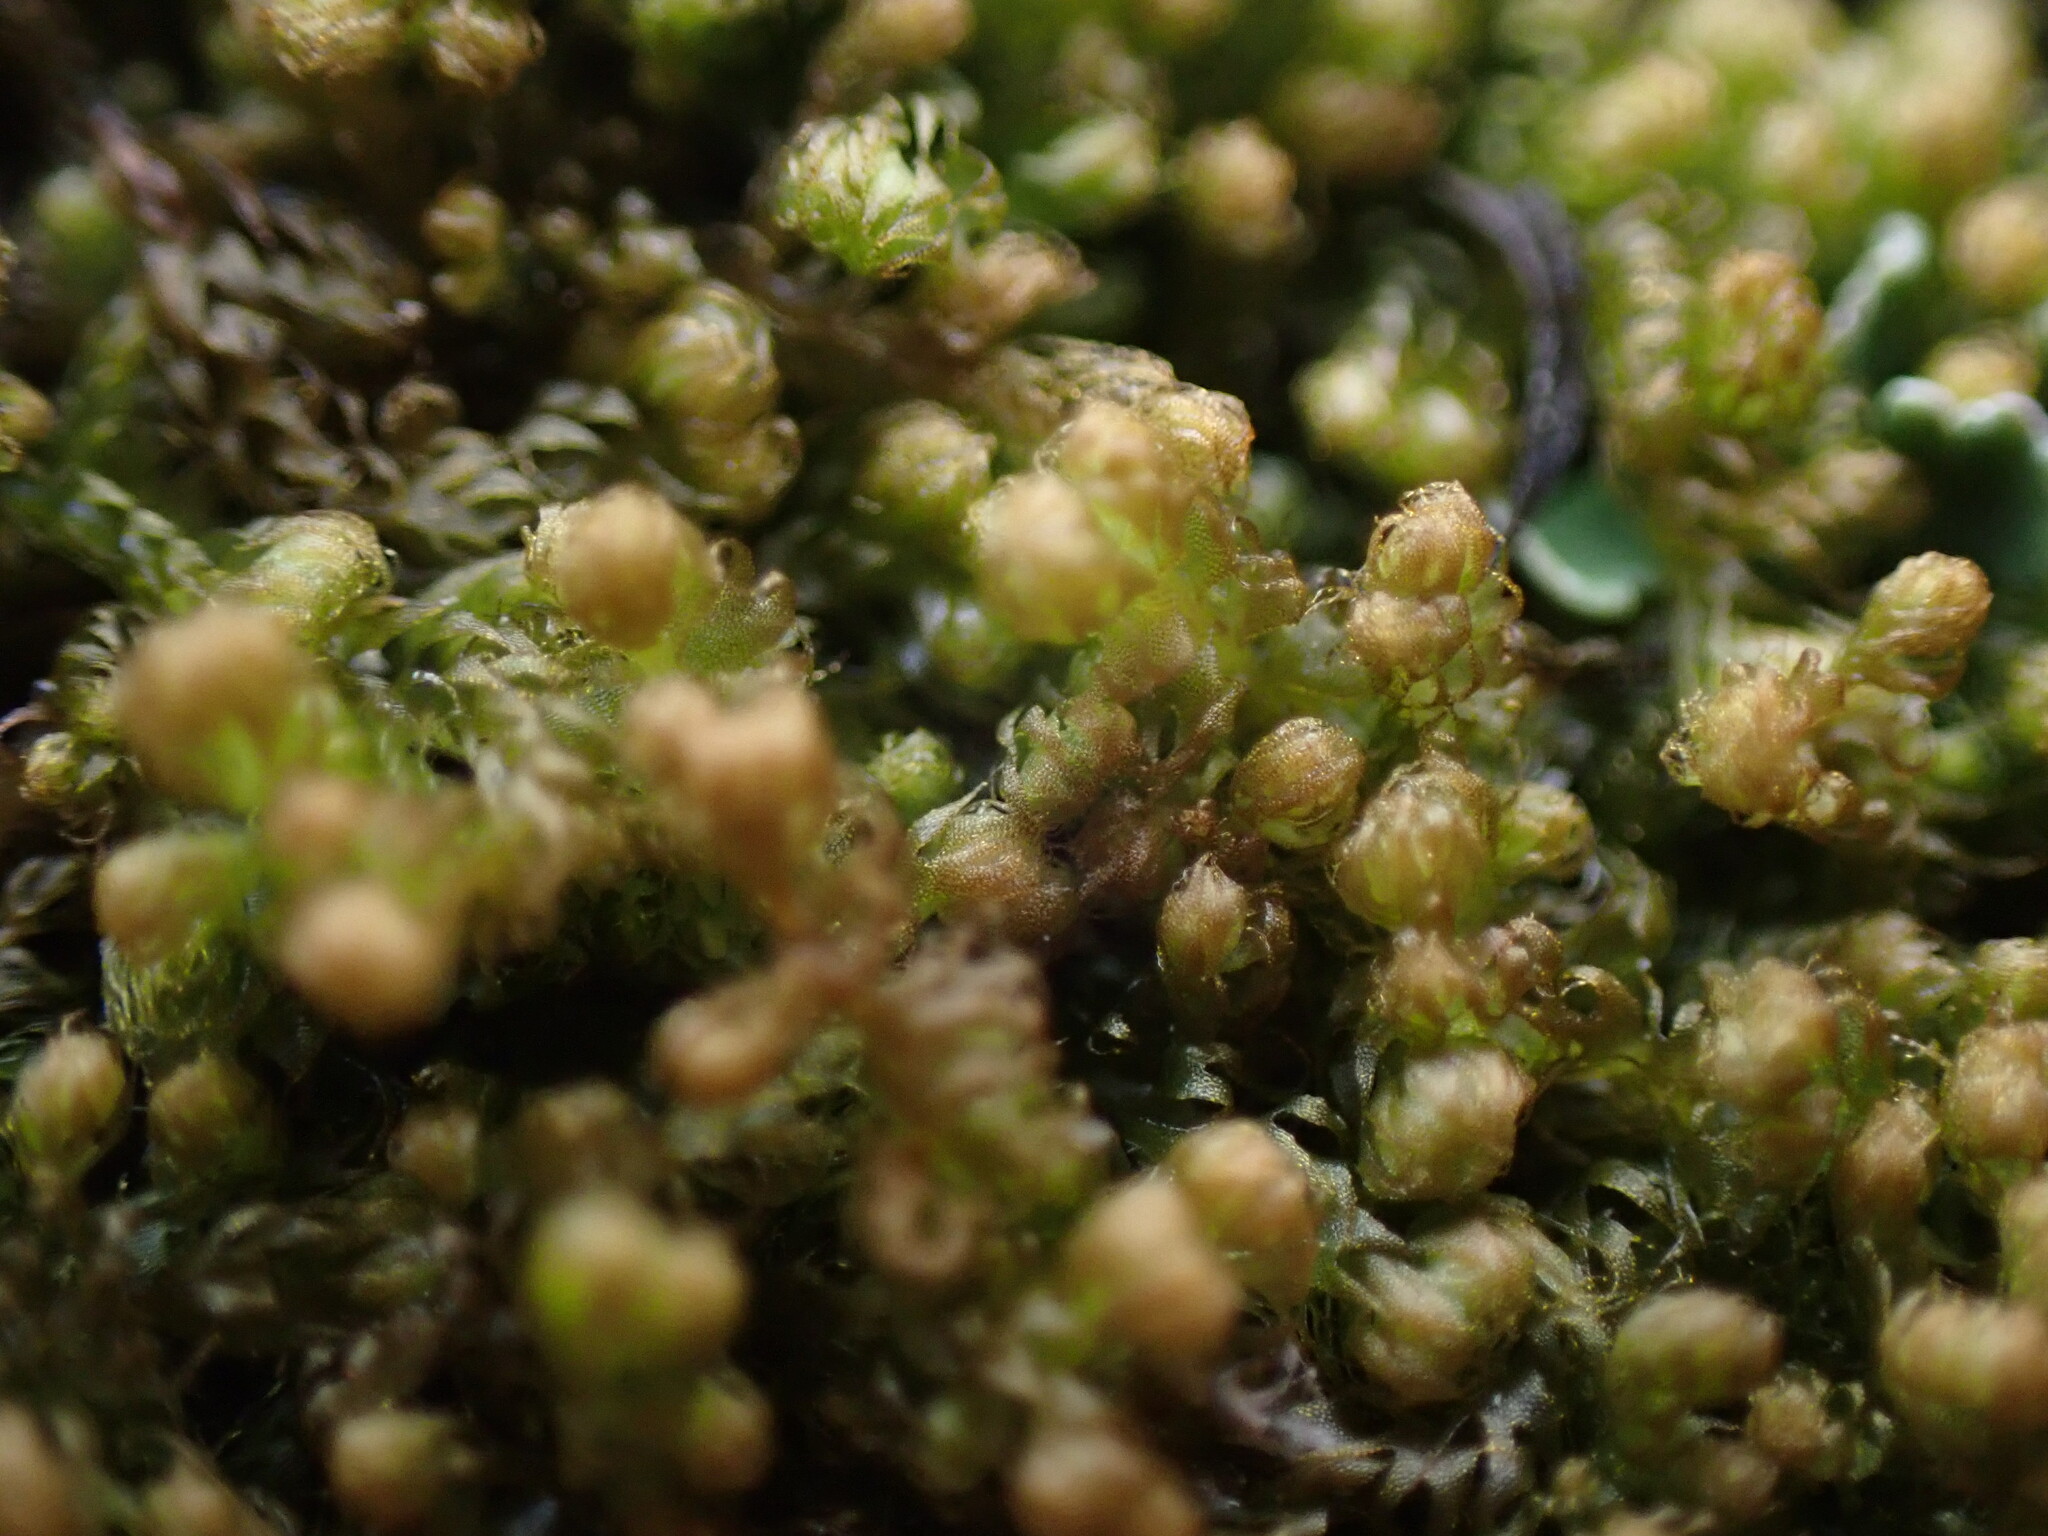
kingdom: Plantae
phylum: Marchantiophyta
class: Jungermanniopsida
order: Ptilidiales
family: Ptilidiaceae
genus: Ptilidium
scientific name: Ptilidium californicum
